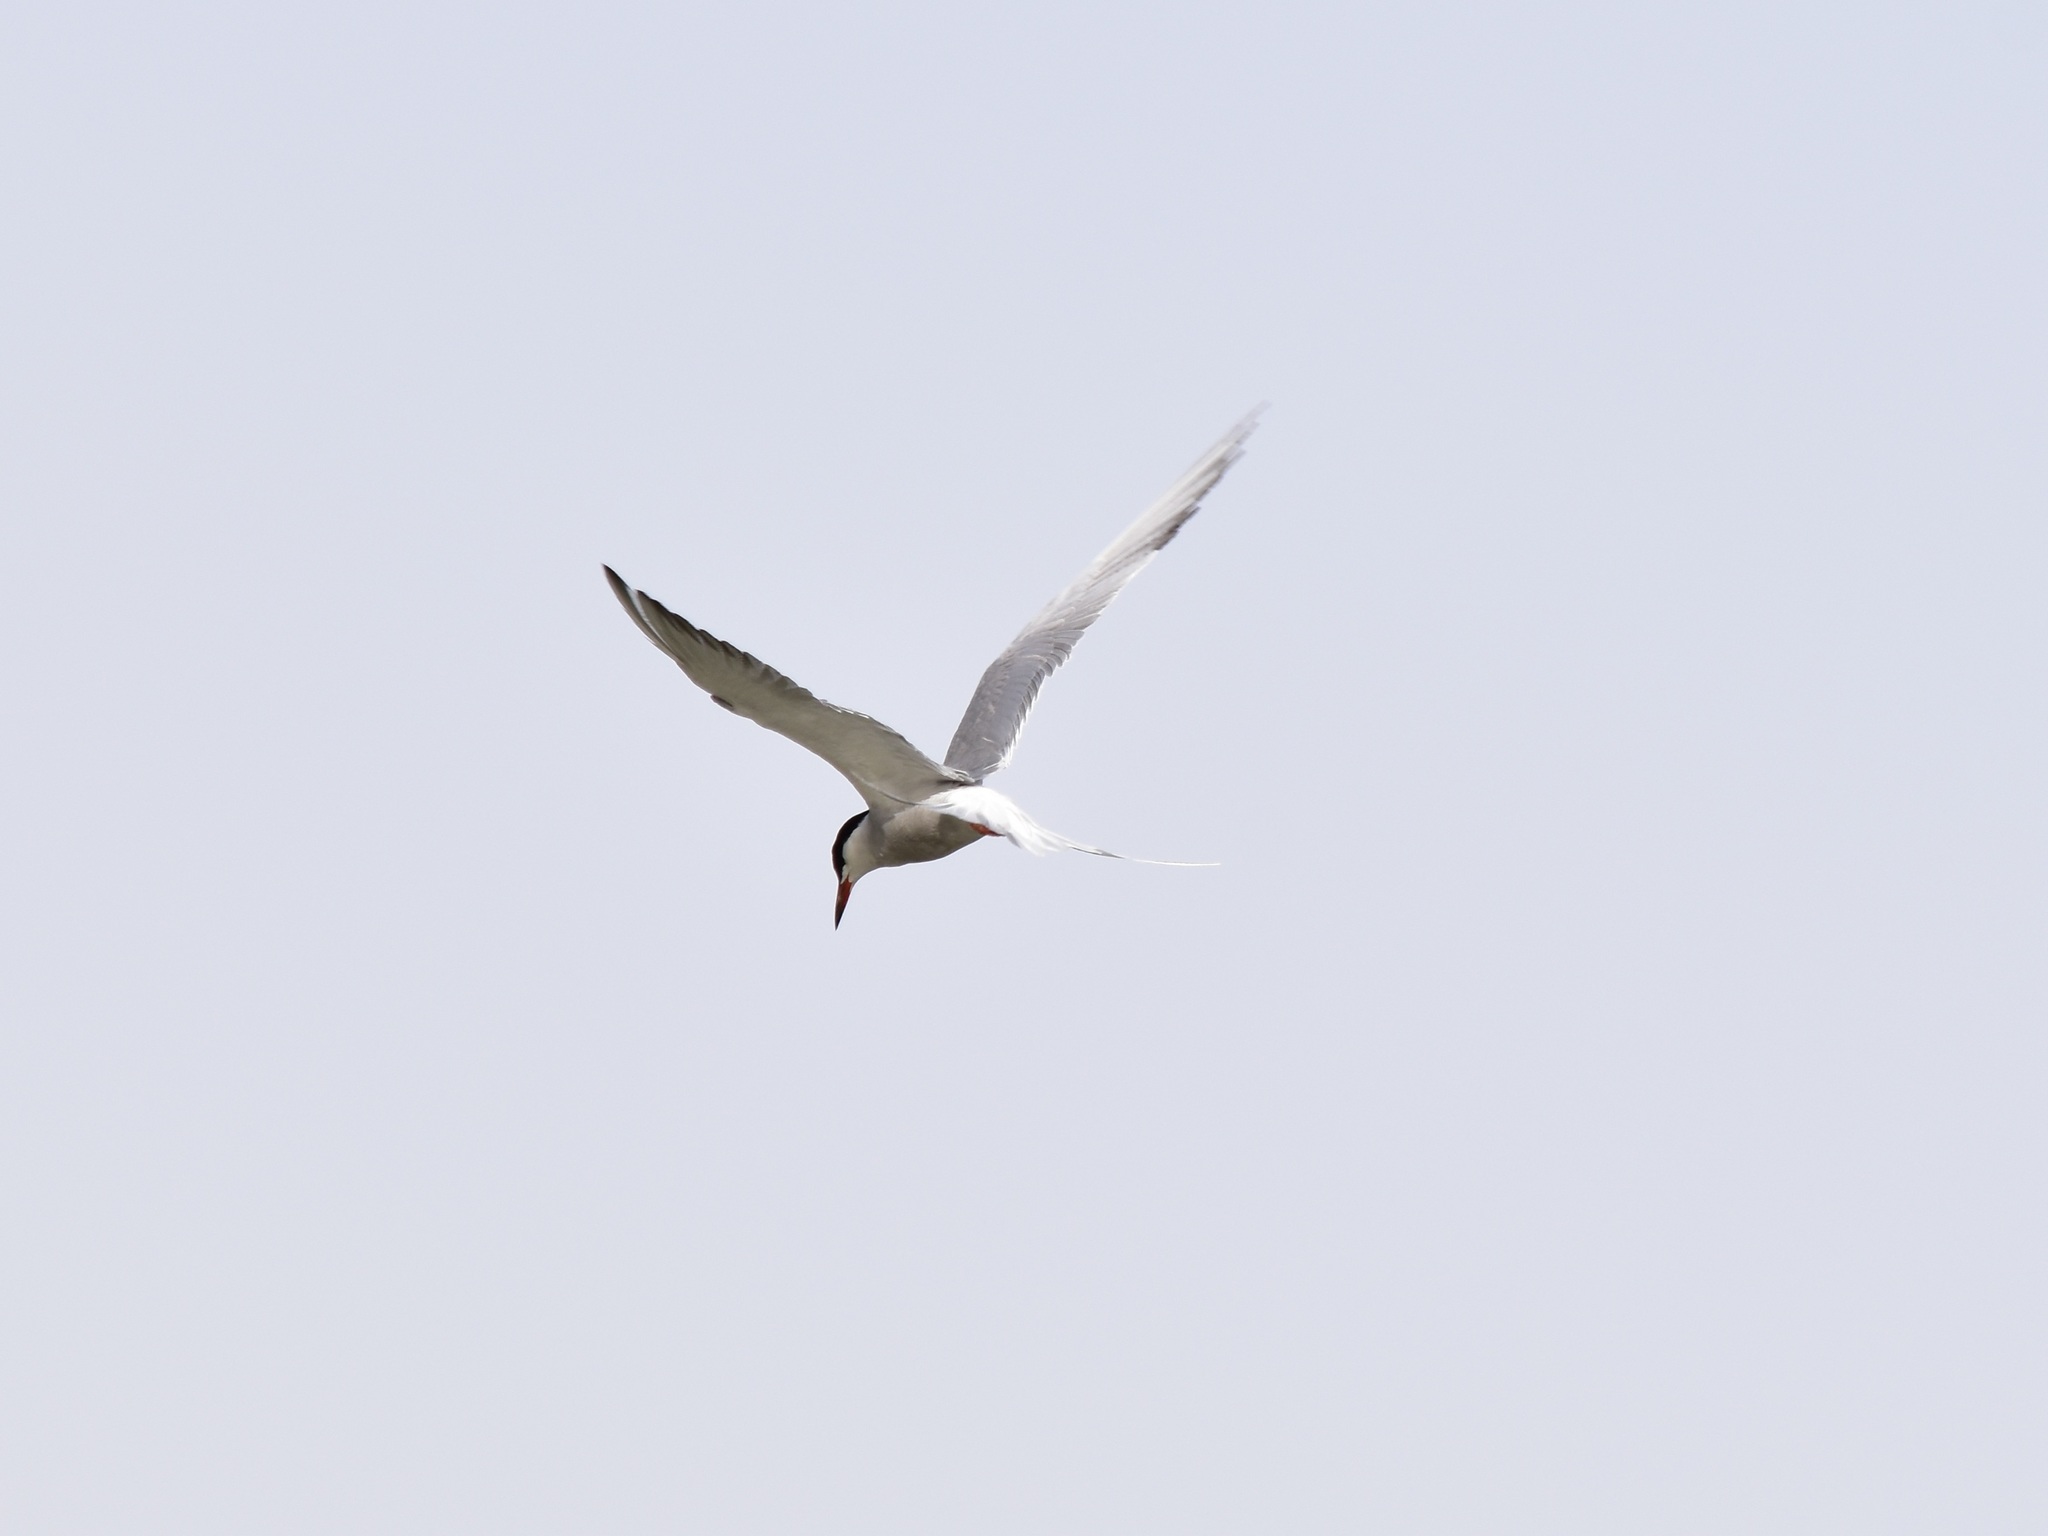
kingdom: Animalia
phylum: Chordata
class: Aves
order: Charadriiformes
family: Laridae
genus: Sterna
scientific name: Sterna hirundo
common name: Common tern
